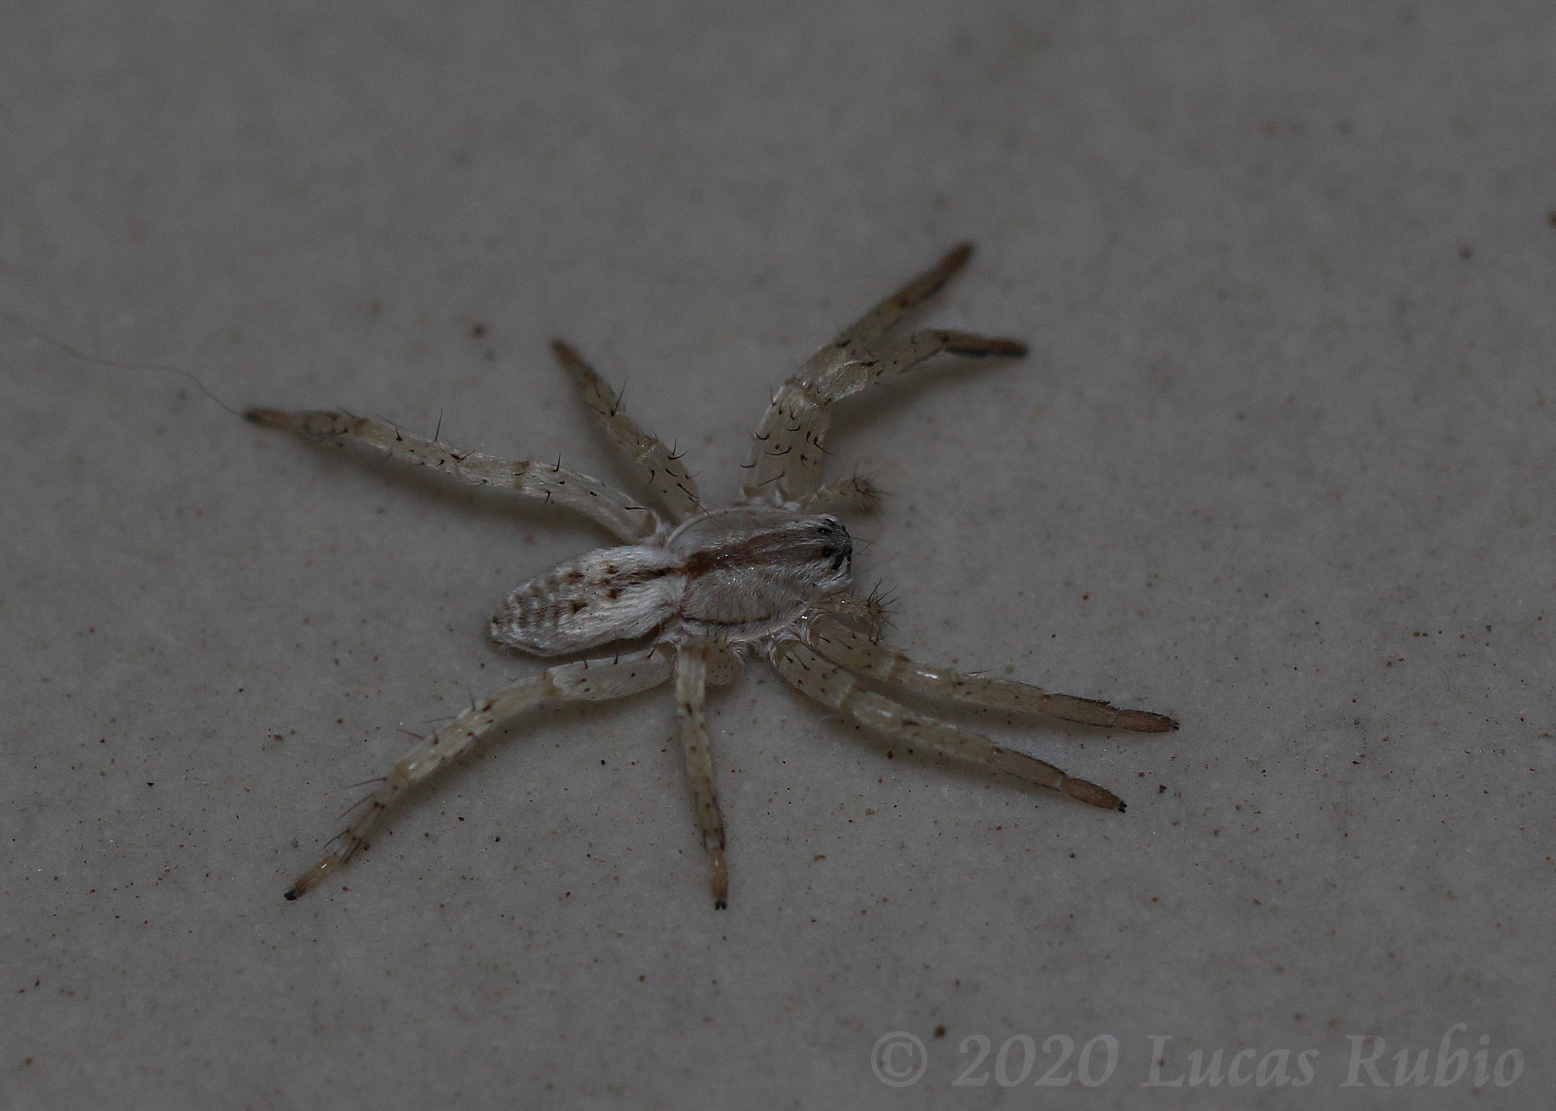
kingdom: Animalia
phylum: Arthropoda
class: Arachnida
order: Araneae
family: Anyphaenidae
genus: Arachosia
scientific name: Arachosia praesignis
